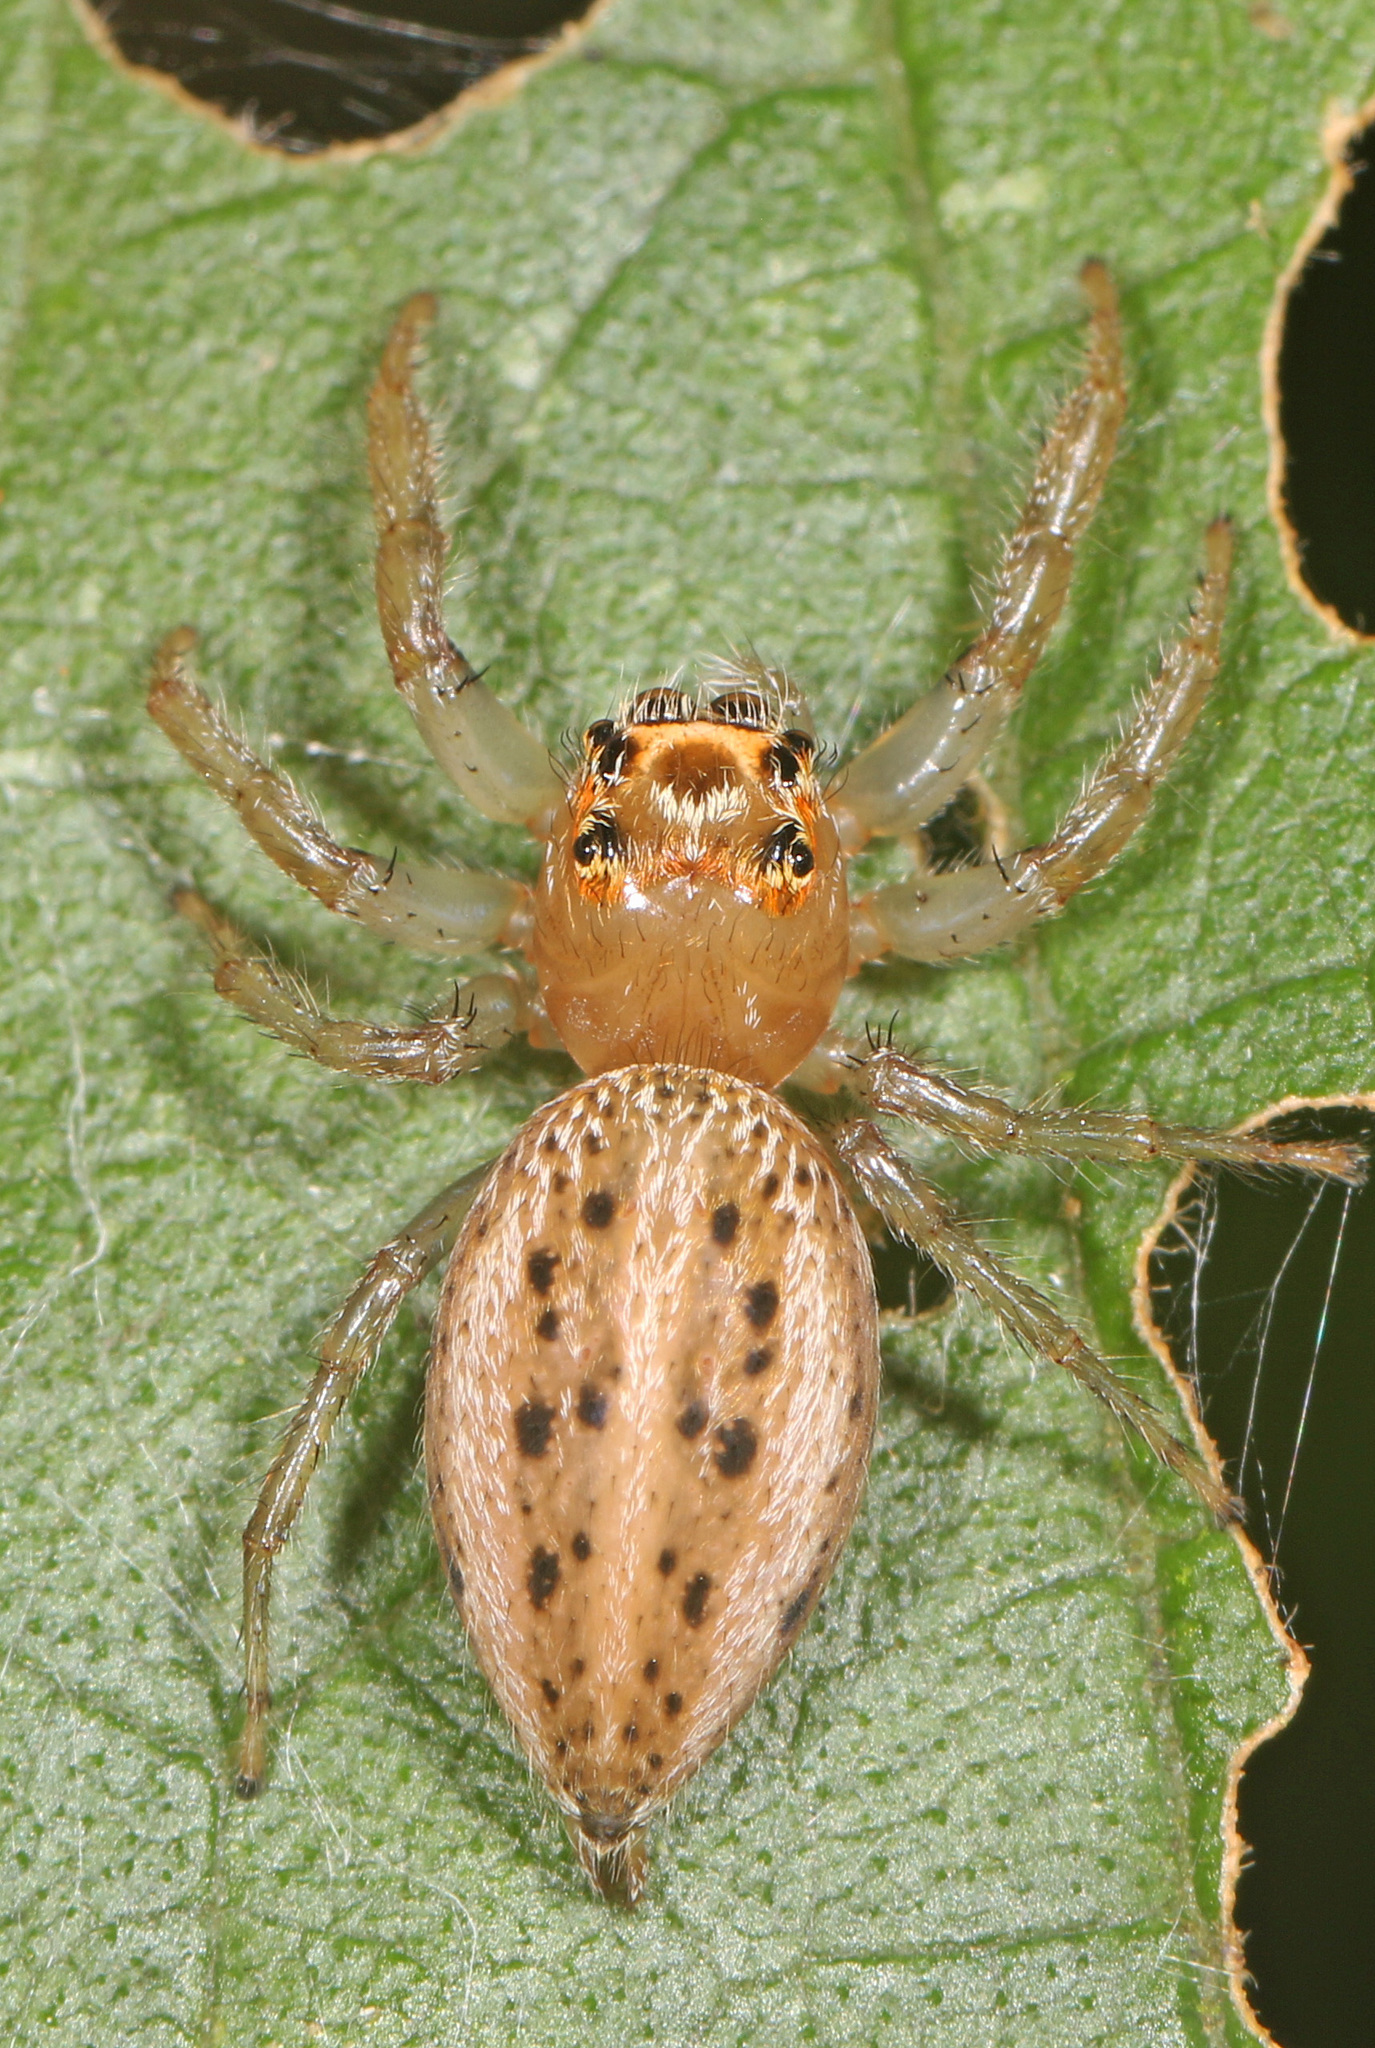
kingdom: Animalia
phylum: Arthropoda
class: Arachnida
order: Araneae
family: Salticidae
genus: Colonus
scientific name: Colonus sylvanus
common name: Jumping spiders
